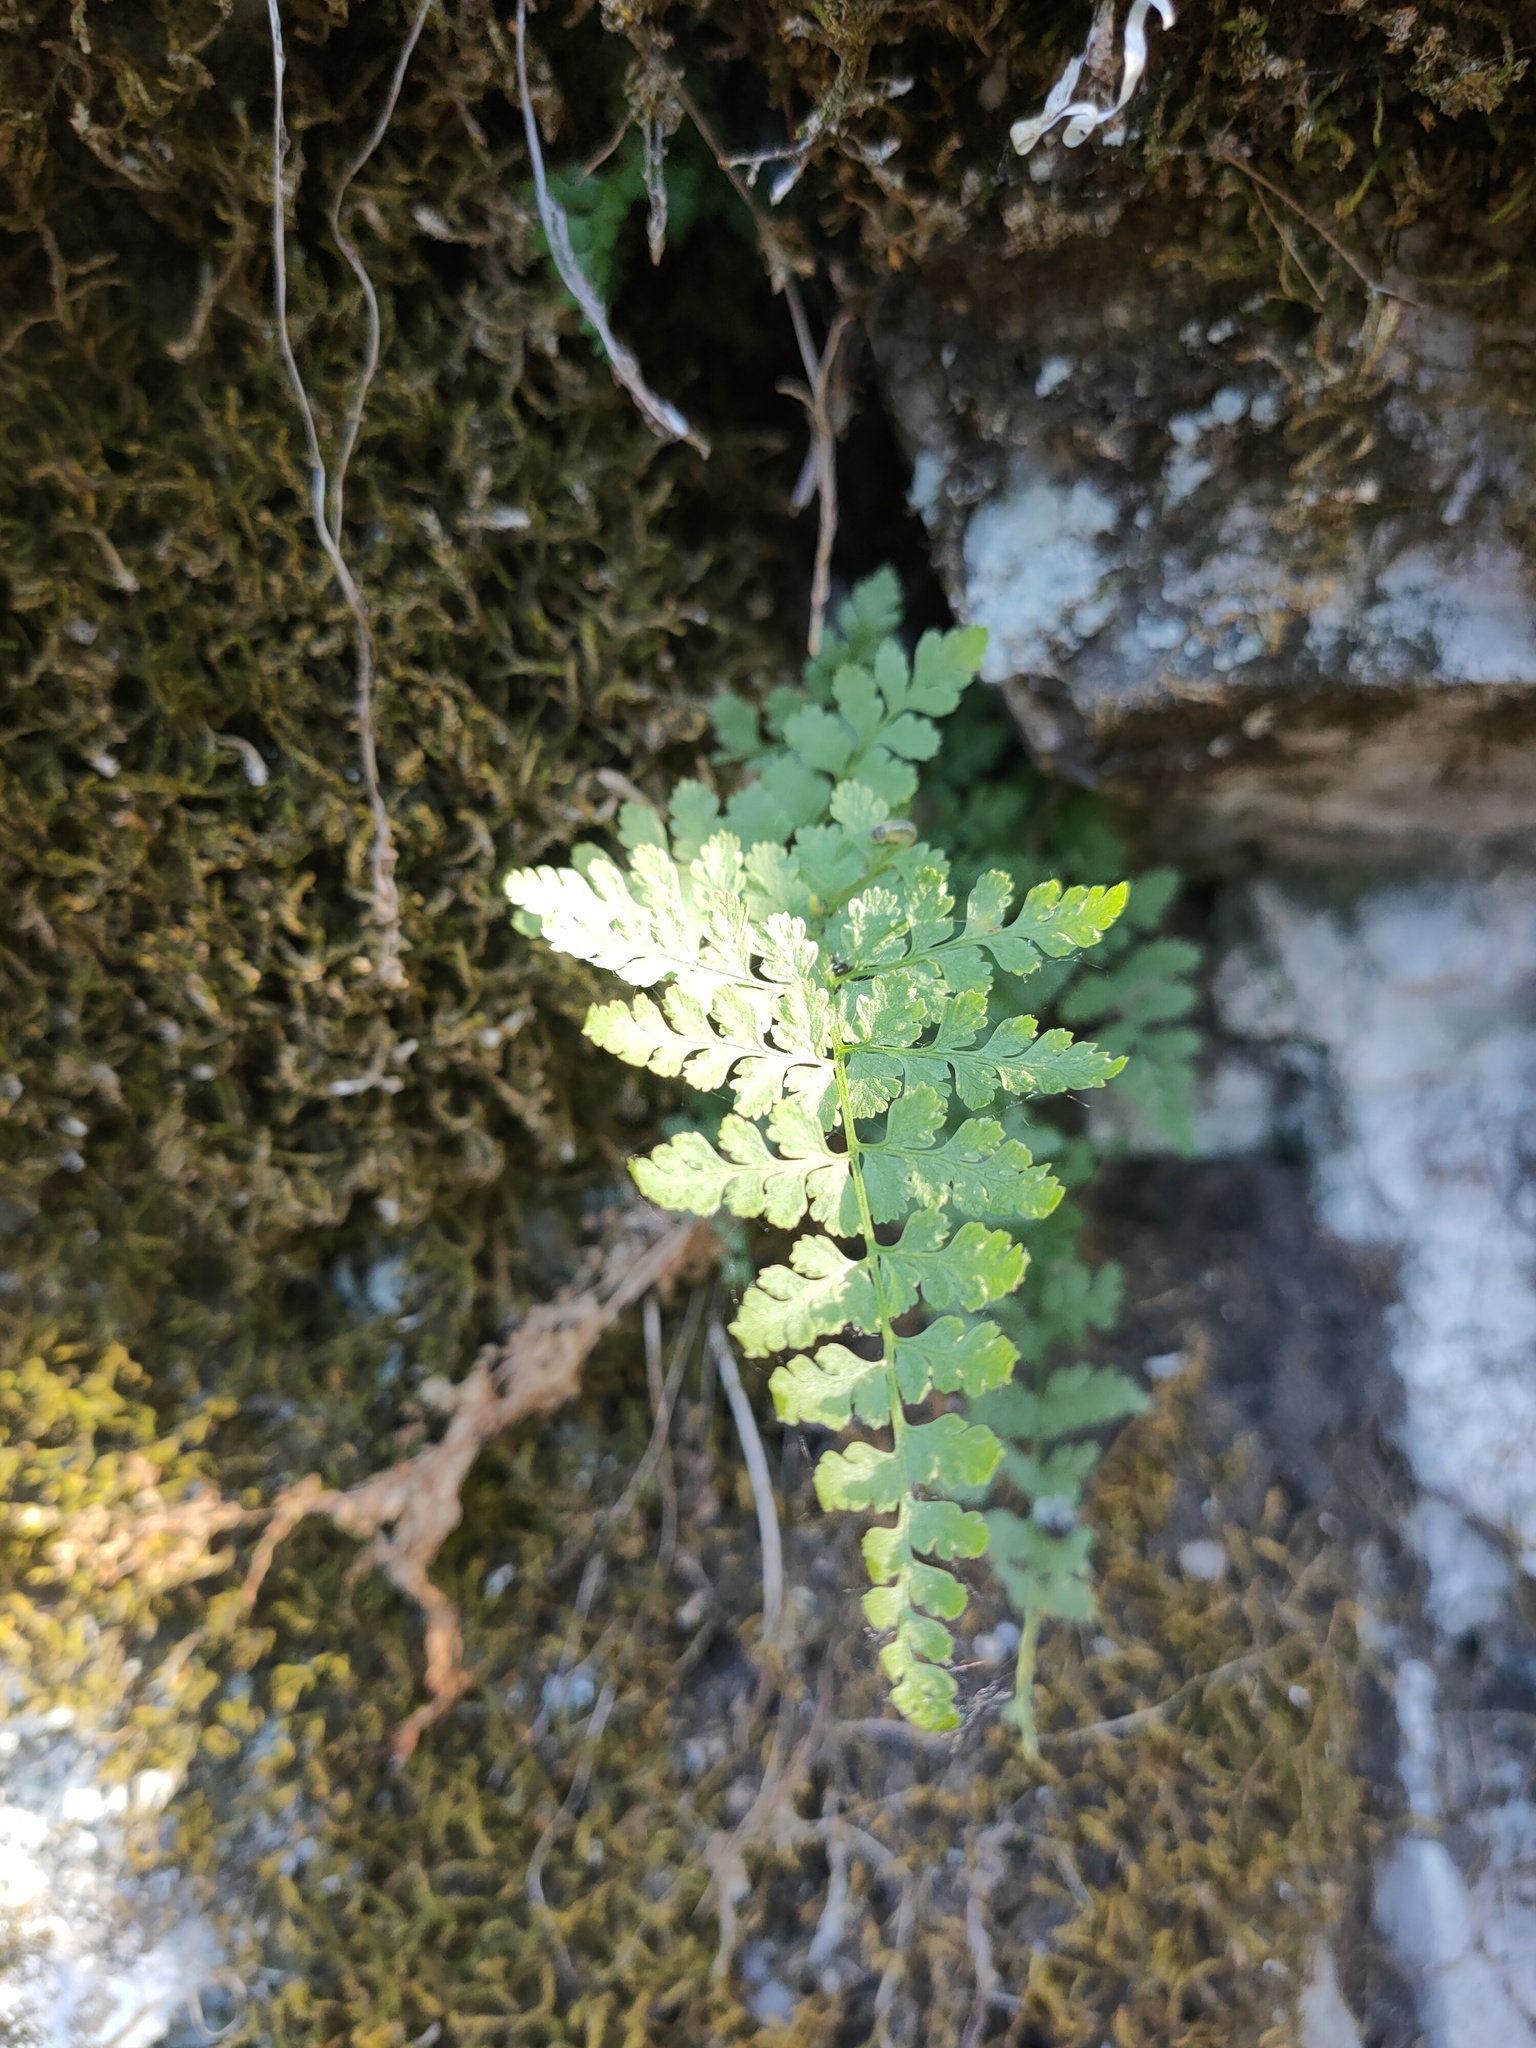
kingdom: Plantae
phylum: Tracheophyta
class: Polypodiopsida
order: Polypodiales
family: Cystopteridaceae
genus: Cystopteris
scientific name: Cystopteris fragilis
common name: Brittle bladder fern
